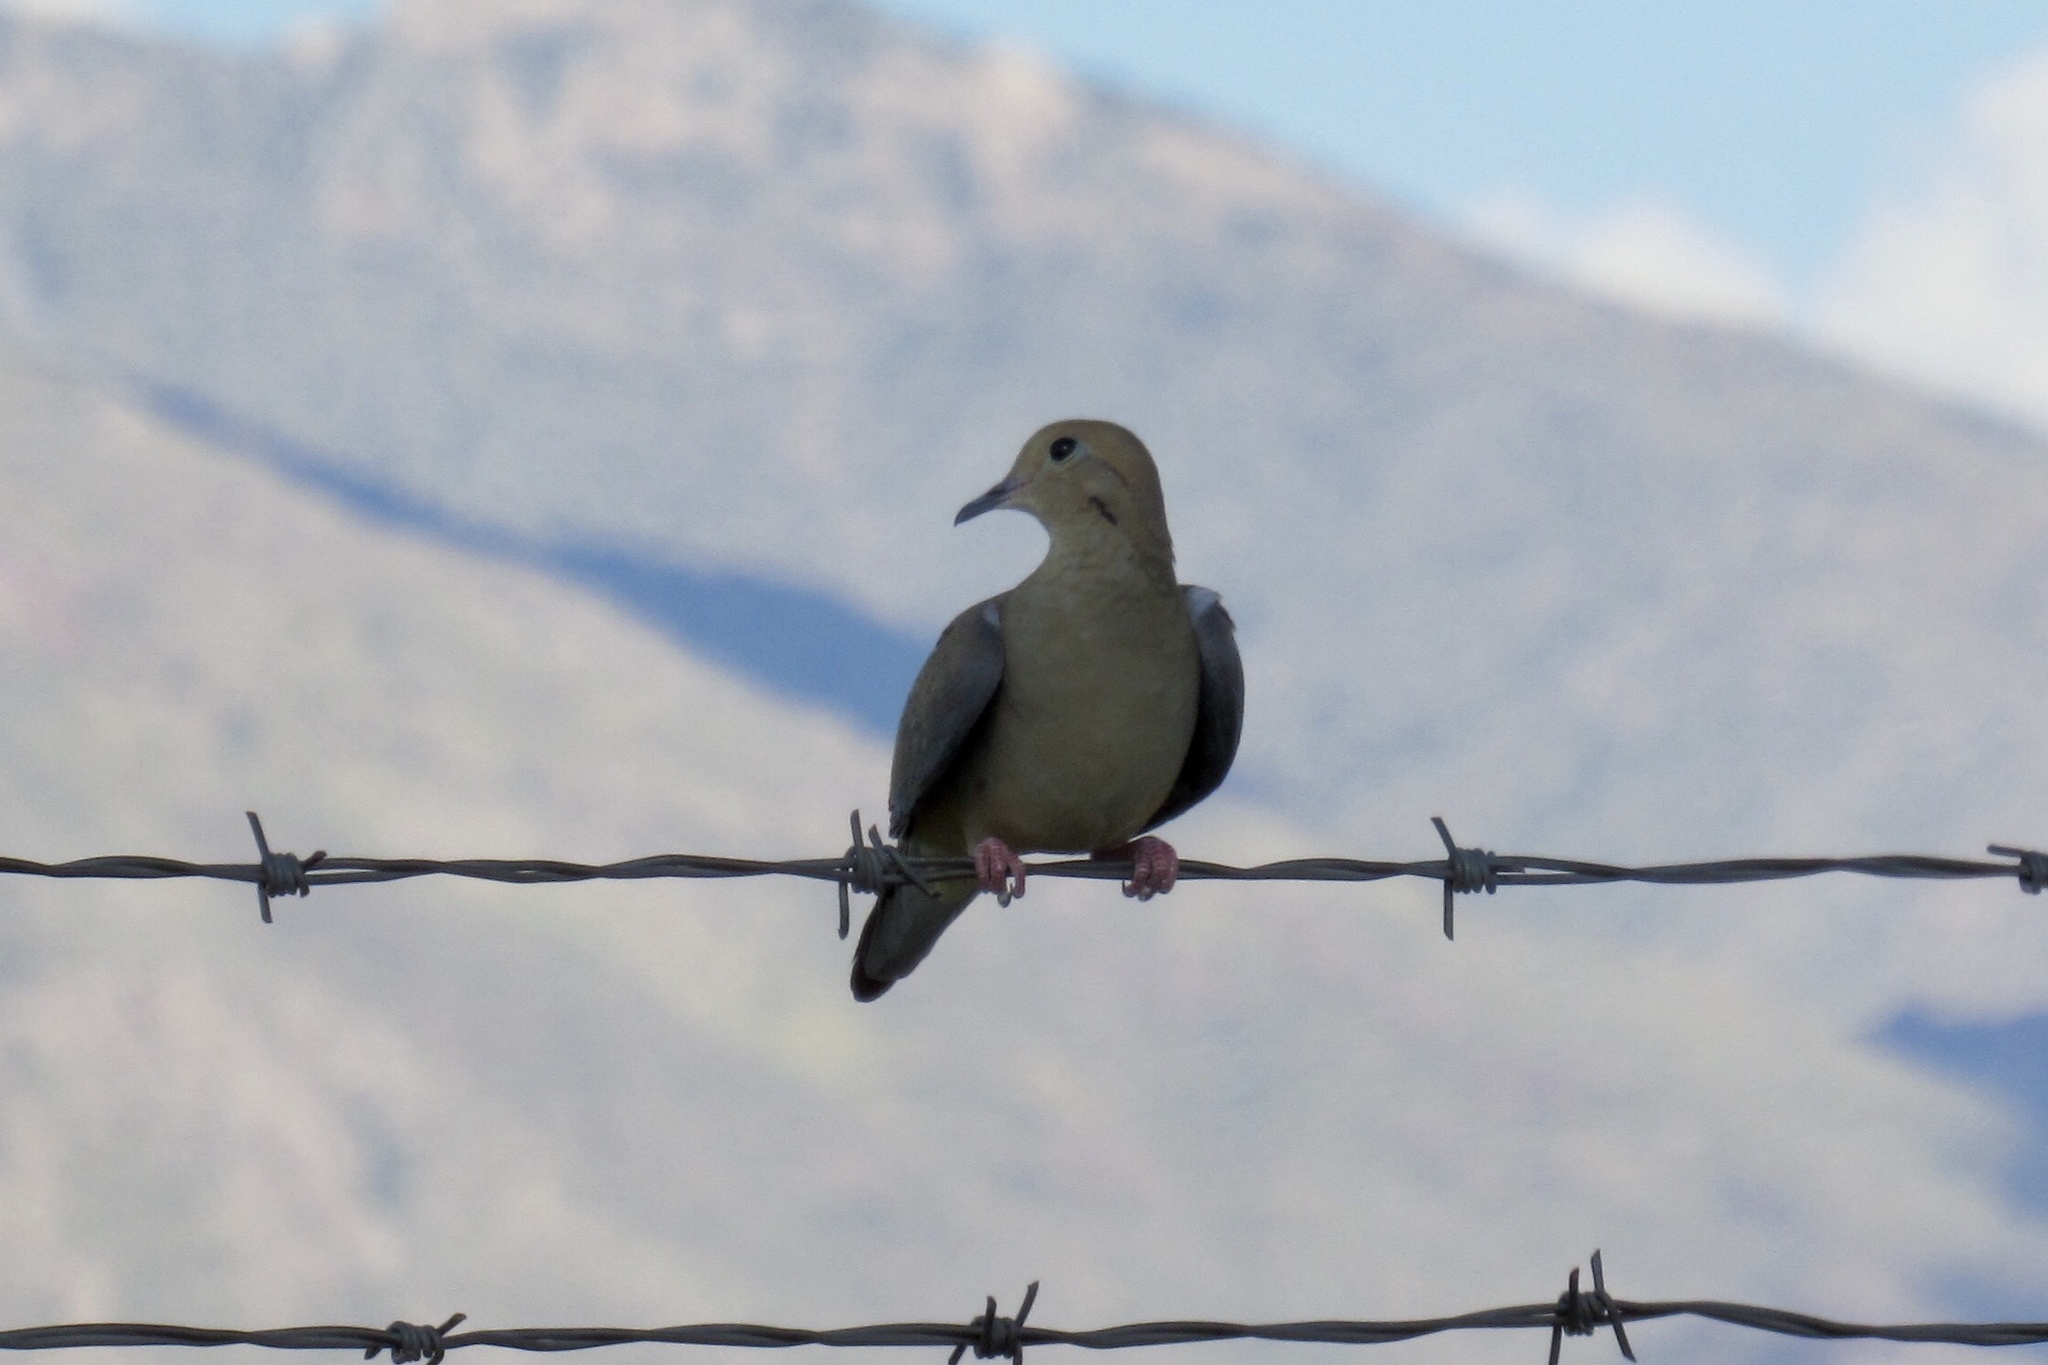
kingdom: Animalia
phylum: Chordata
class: Aves
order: Columbiformes
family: Columbidae
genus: Zenaida
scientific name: Zenaida macroura
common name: Mourning dove
